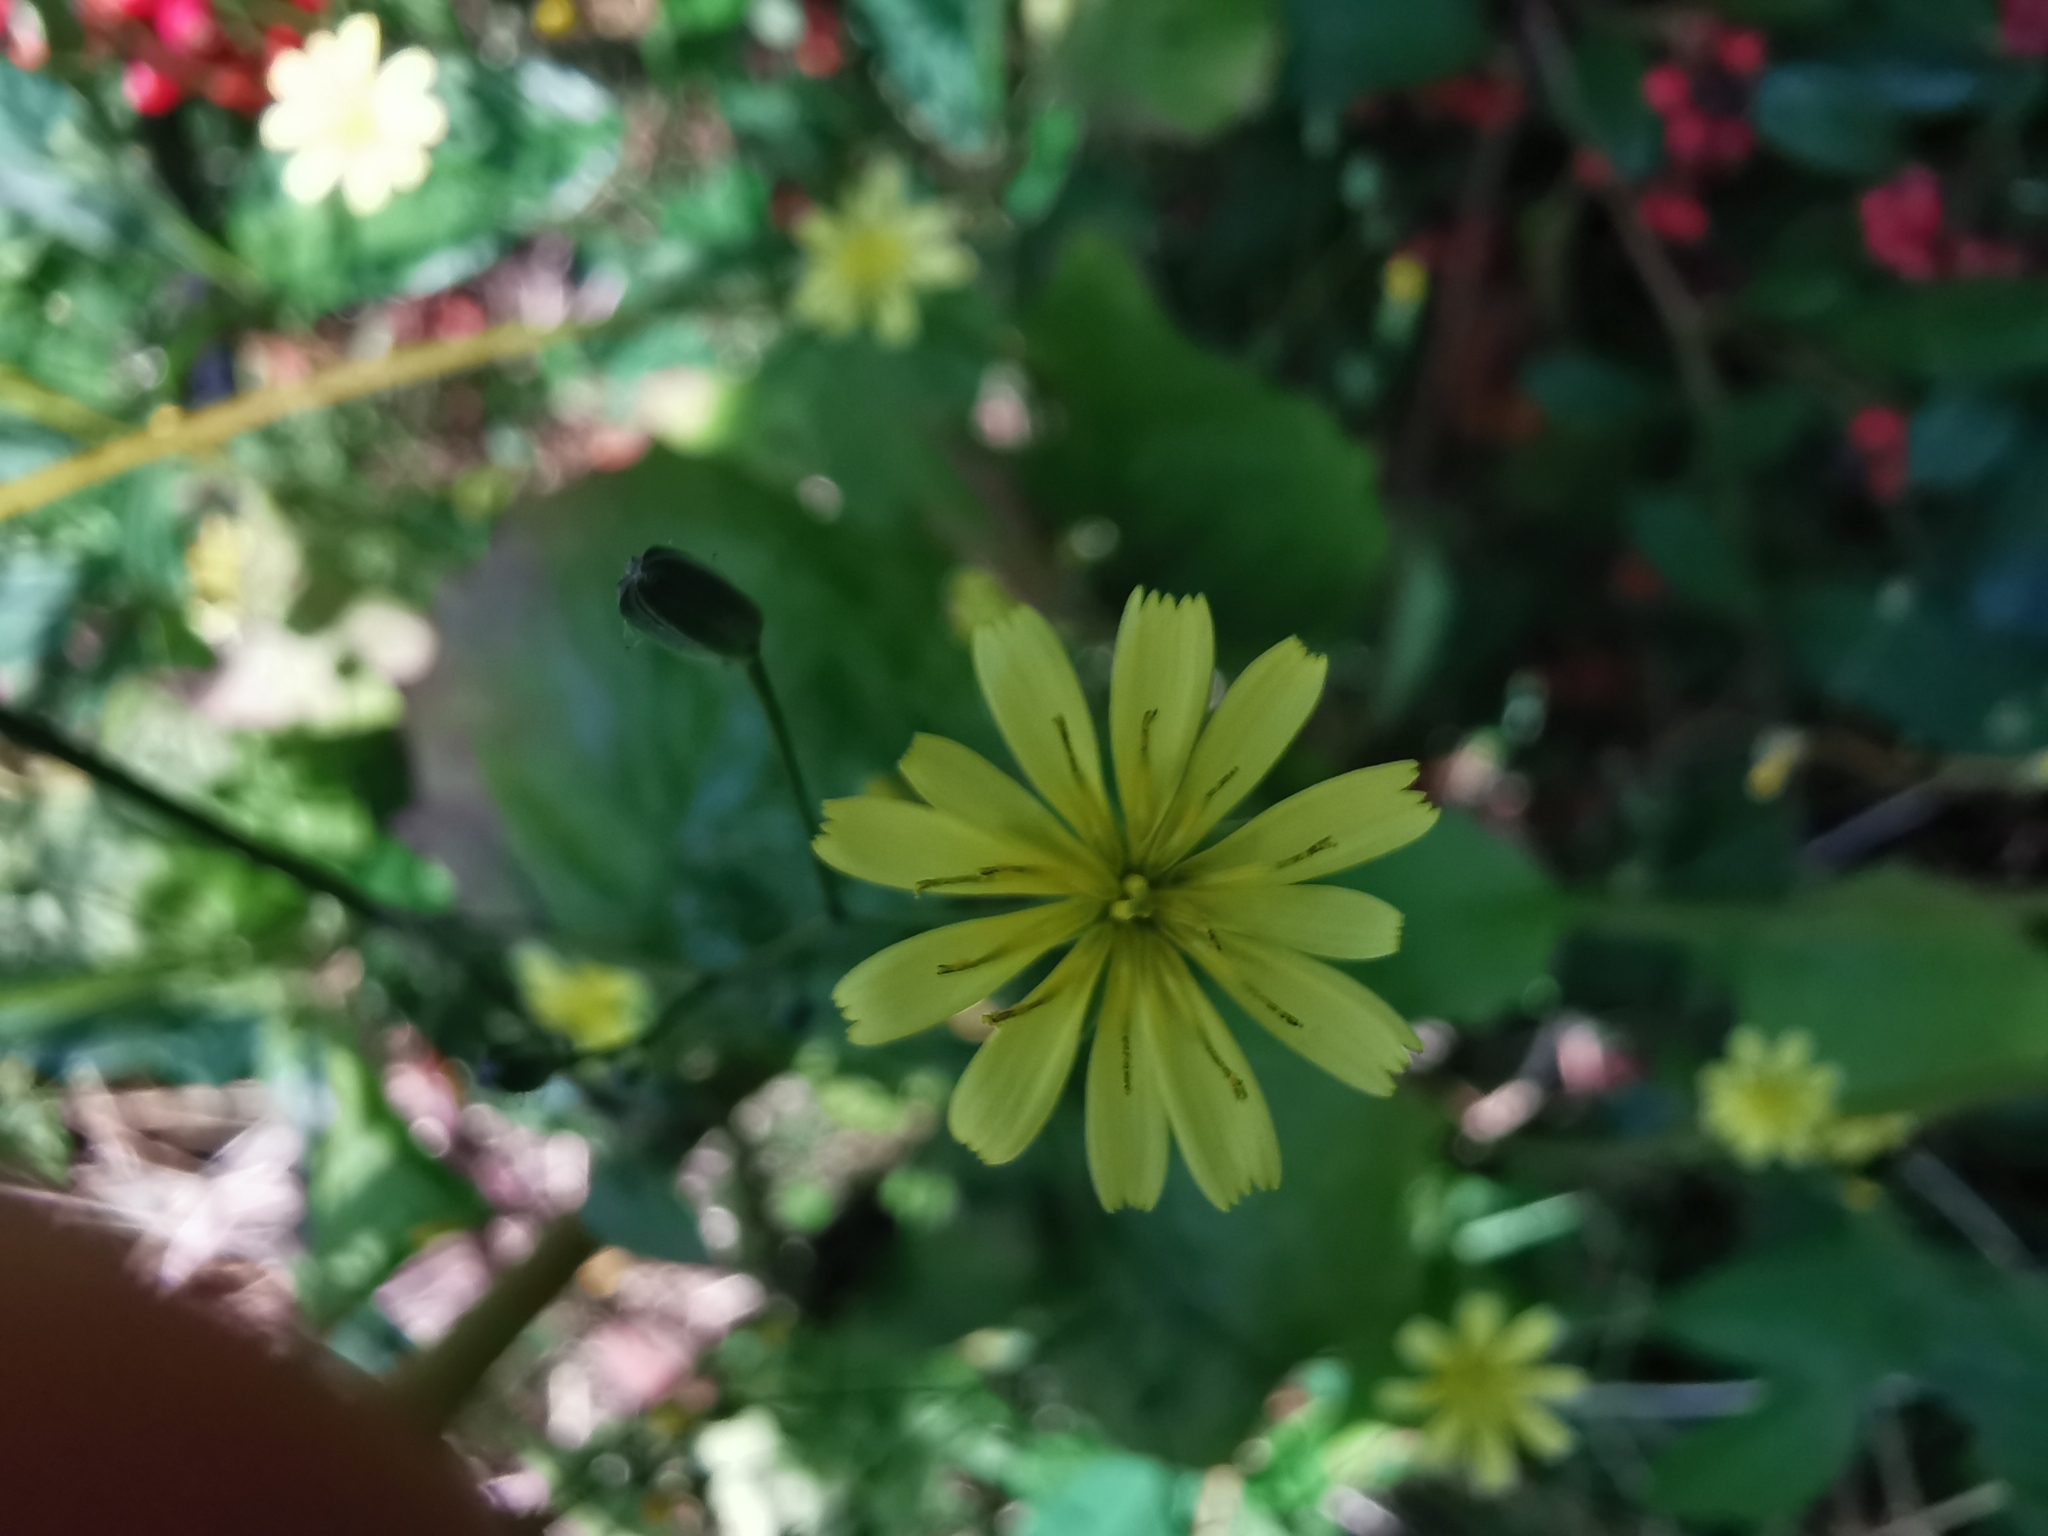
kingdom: Plantae
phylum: Tracheophyta
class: Magnoliopsida
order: Asterales
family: Asteraceae
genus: Lapsana
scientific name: Lapsana communis
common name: Nipplewort
